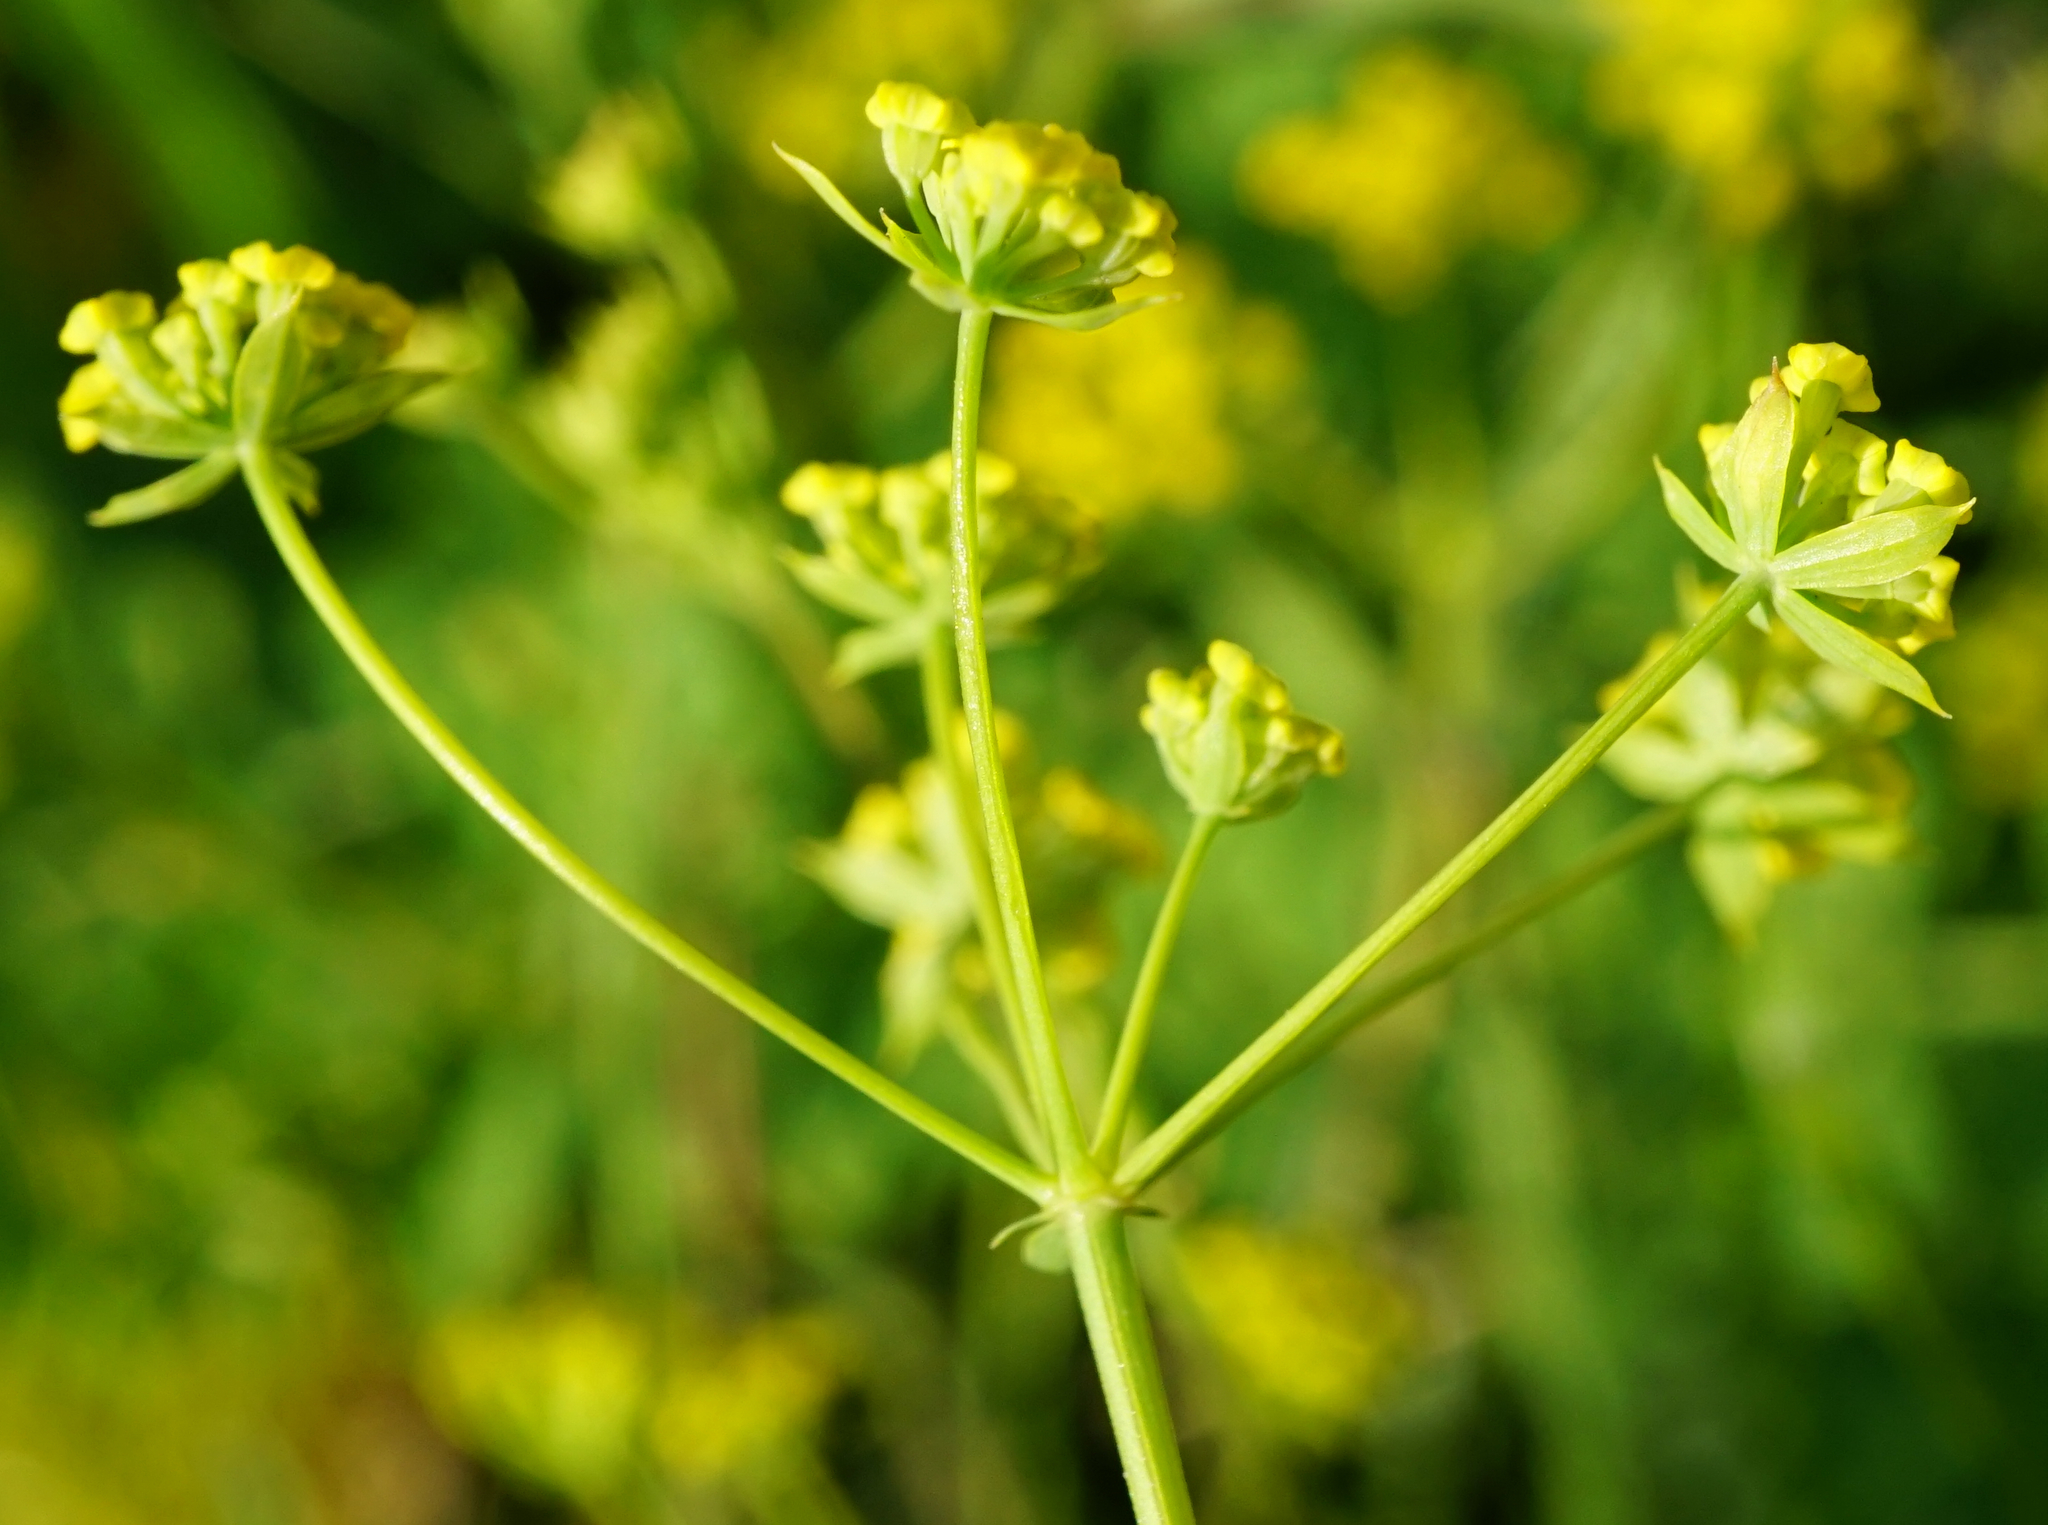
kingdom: Plantae
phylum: Tracheophyta
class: Magnoliopsida
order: Apiales
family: Apiaceae
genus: Bupleurum
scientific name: Bupleurum falcatum
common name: Sickle-leaved hare's-ear
